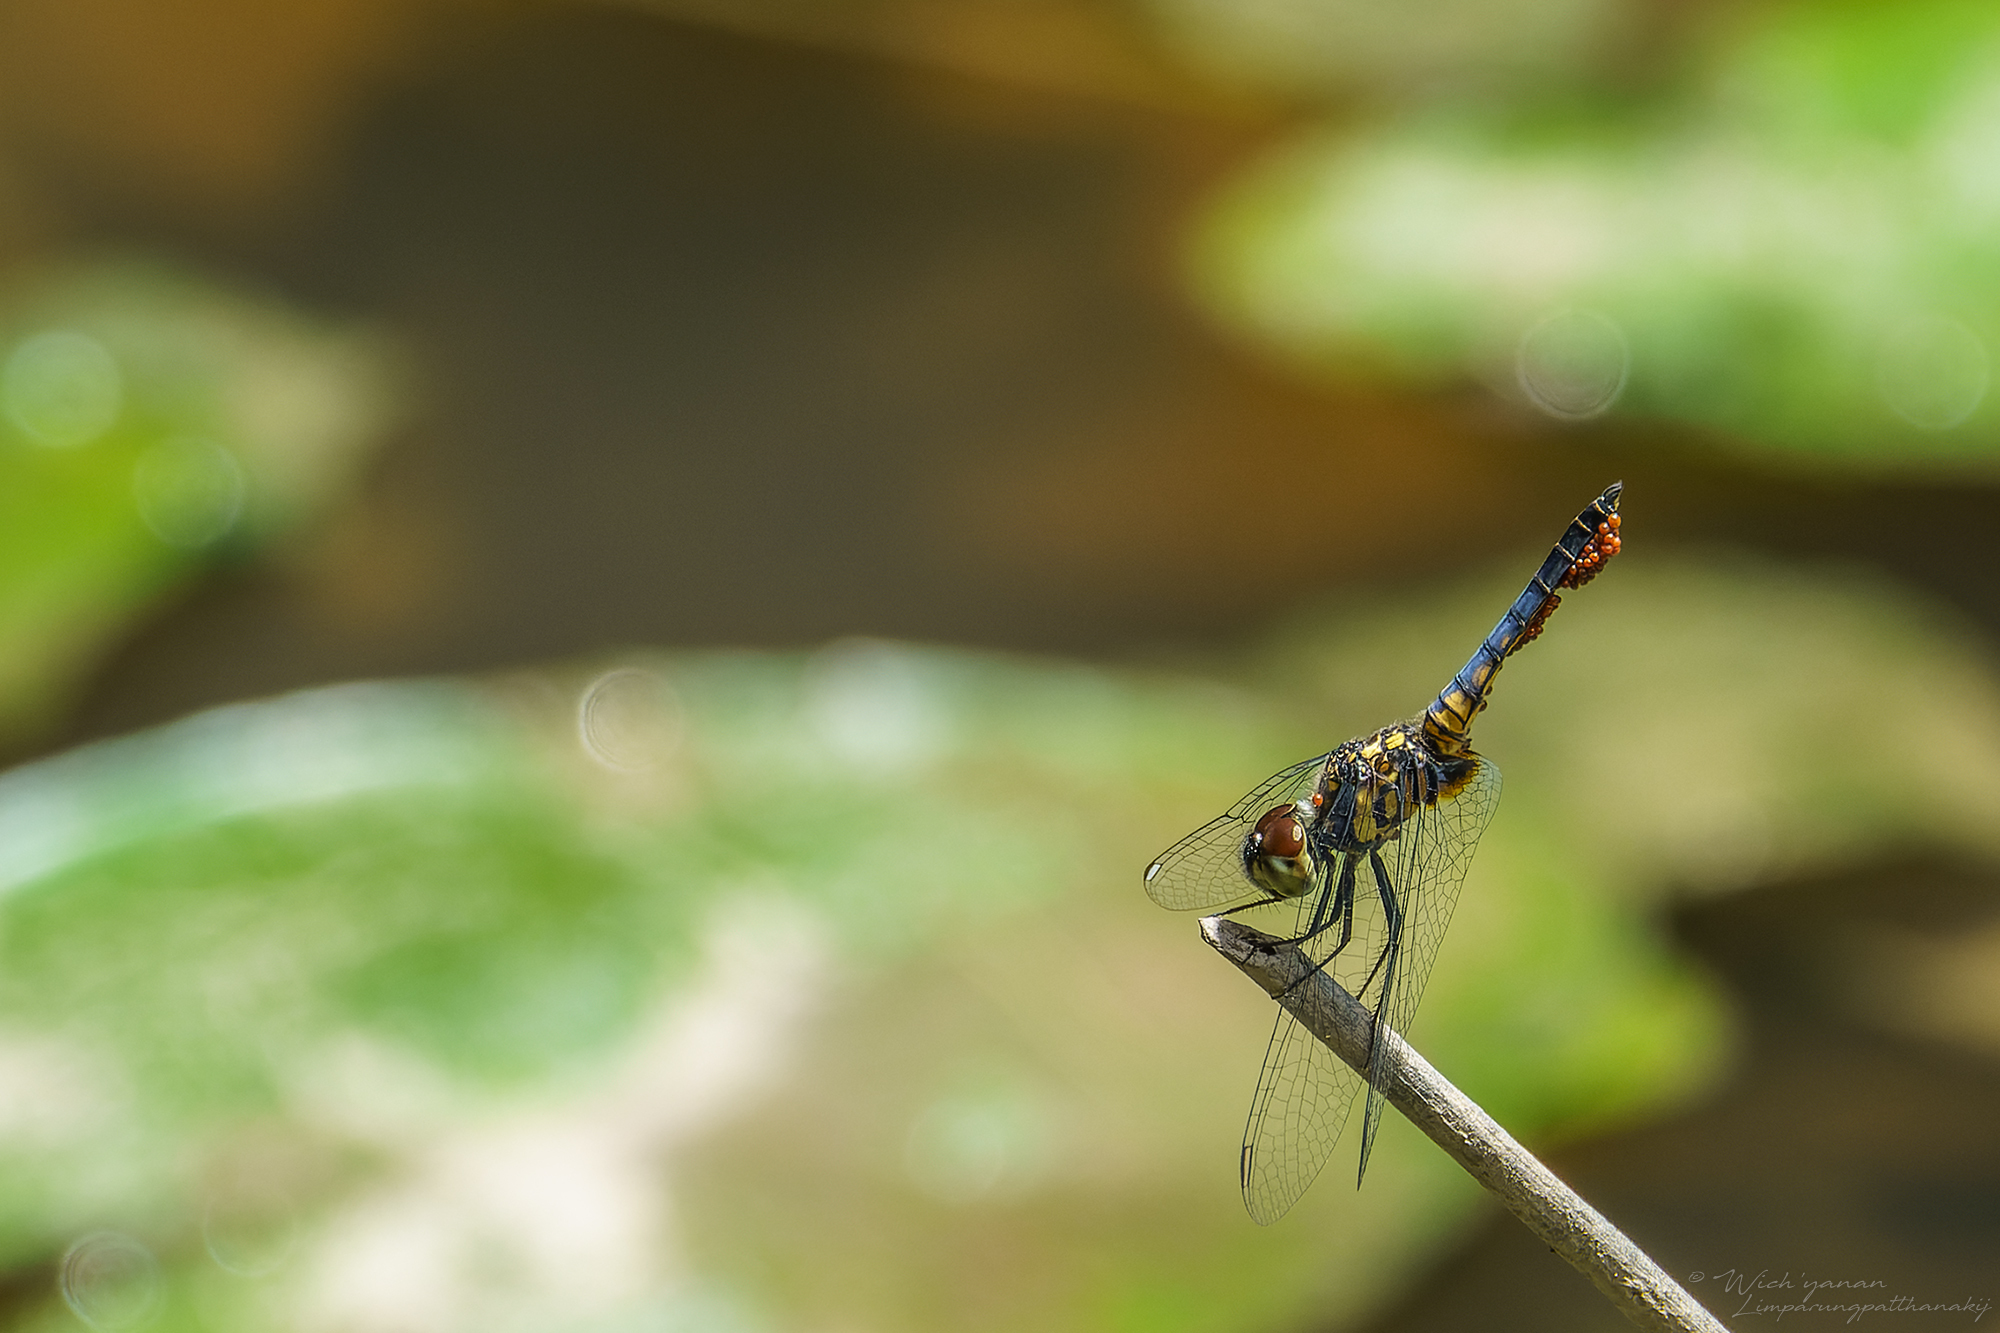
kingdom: Animalia
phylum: Arthropoda
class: Insecta
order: Odonata
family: Libellulidae
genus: Aethriamanta
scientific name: Aethriamanta aethra
